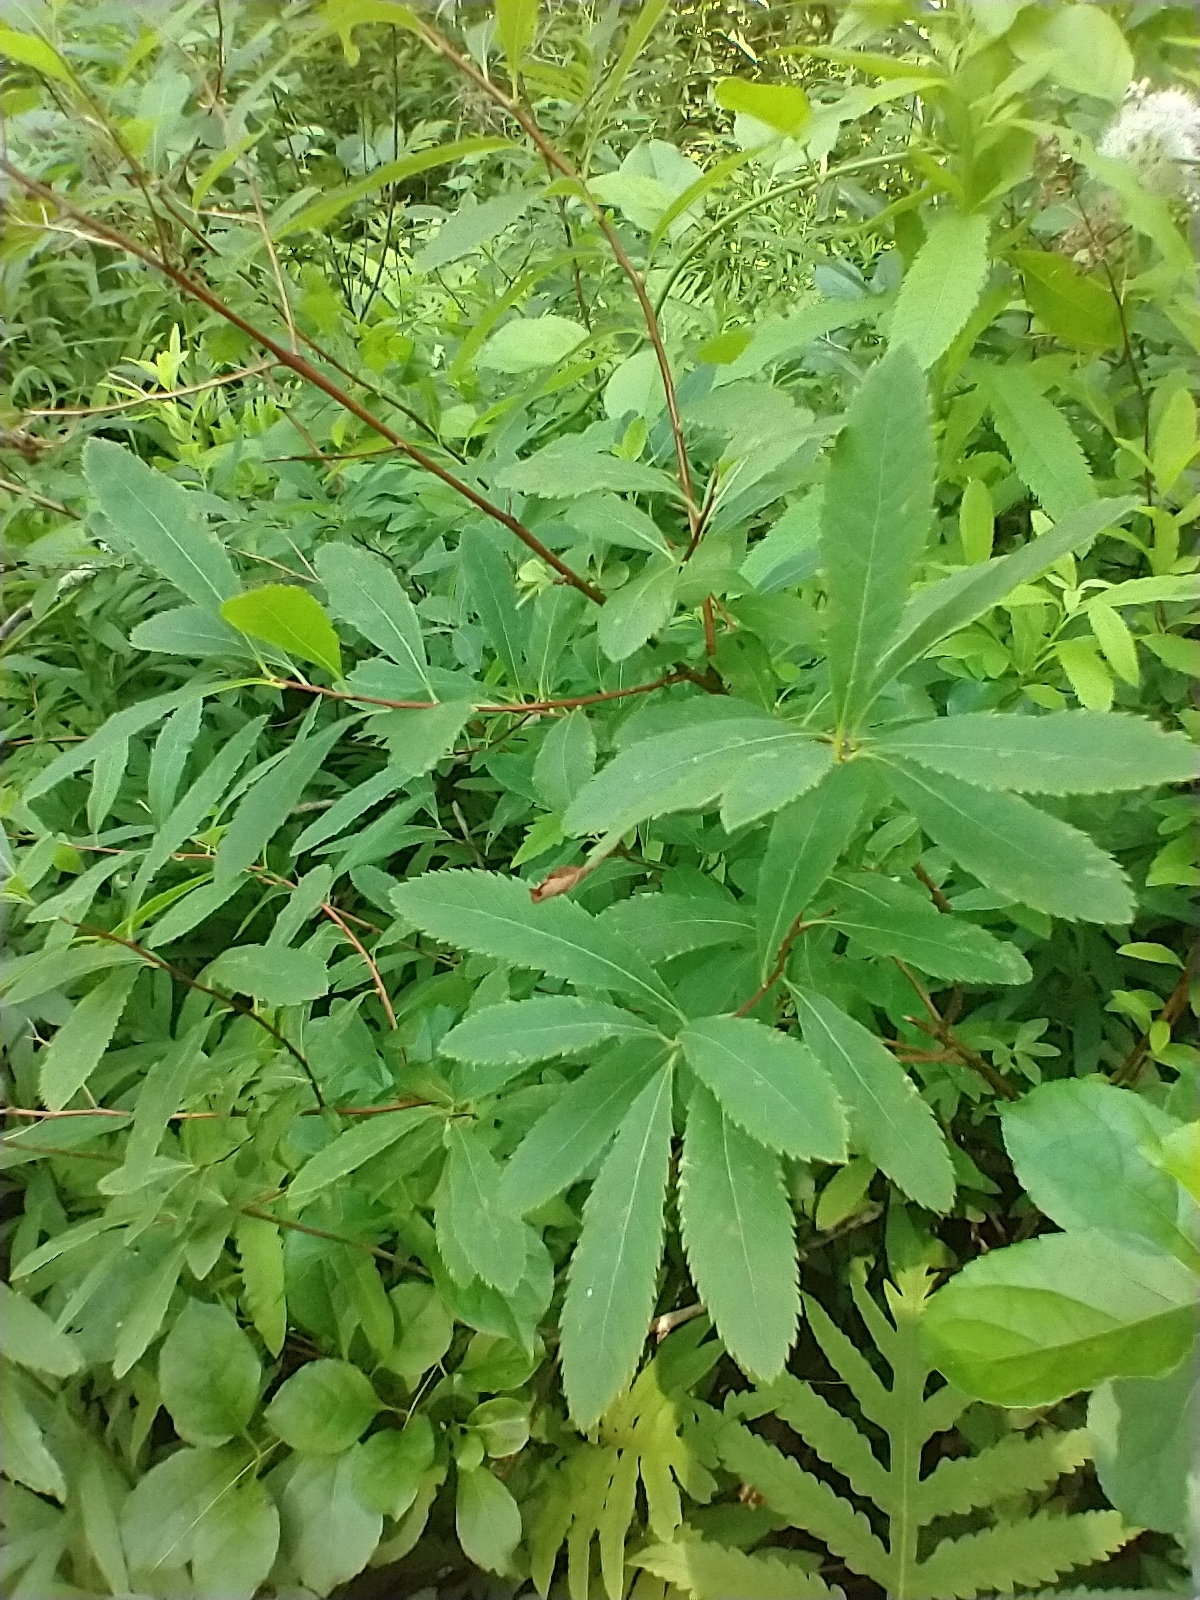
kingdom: Plantae
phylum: Tracheophyta
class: Magnoliopsida
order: Rosales
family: Rosaceae
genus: Spiraea
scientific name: Spiraea alba
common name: Pale bridewort
